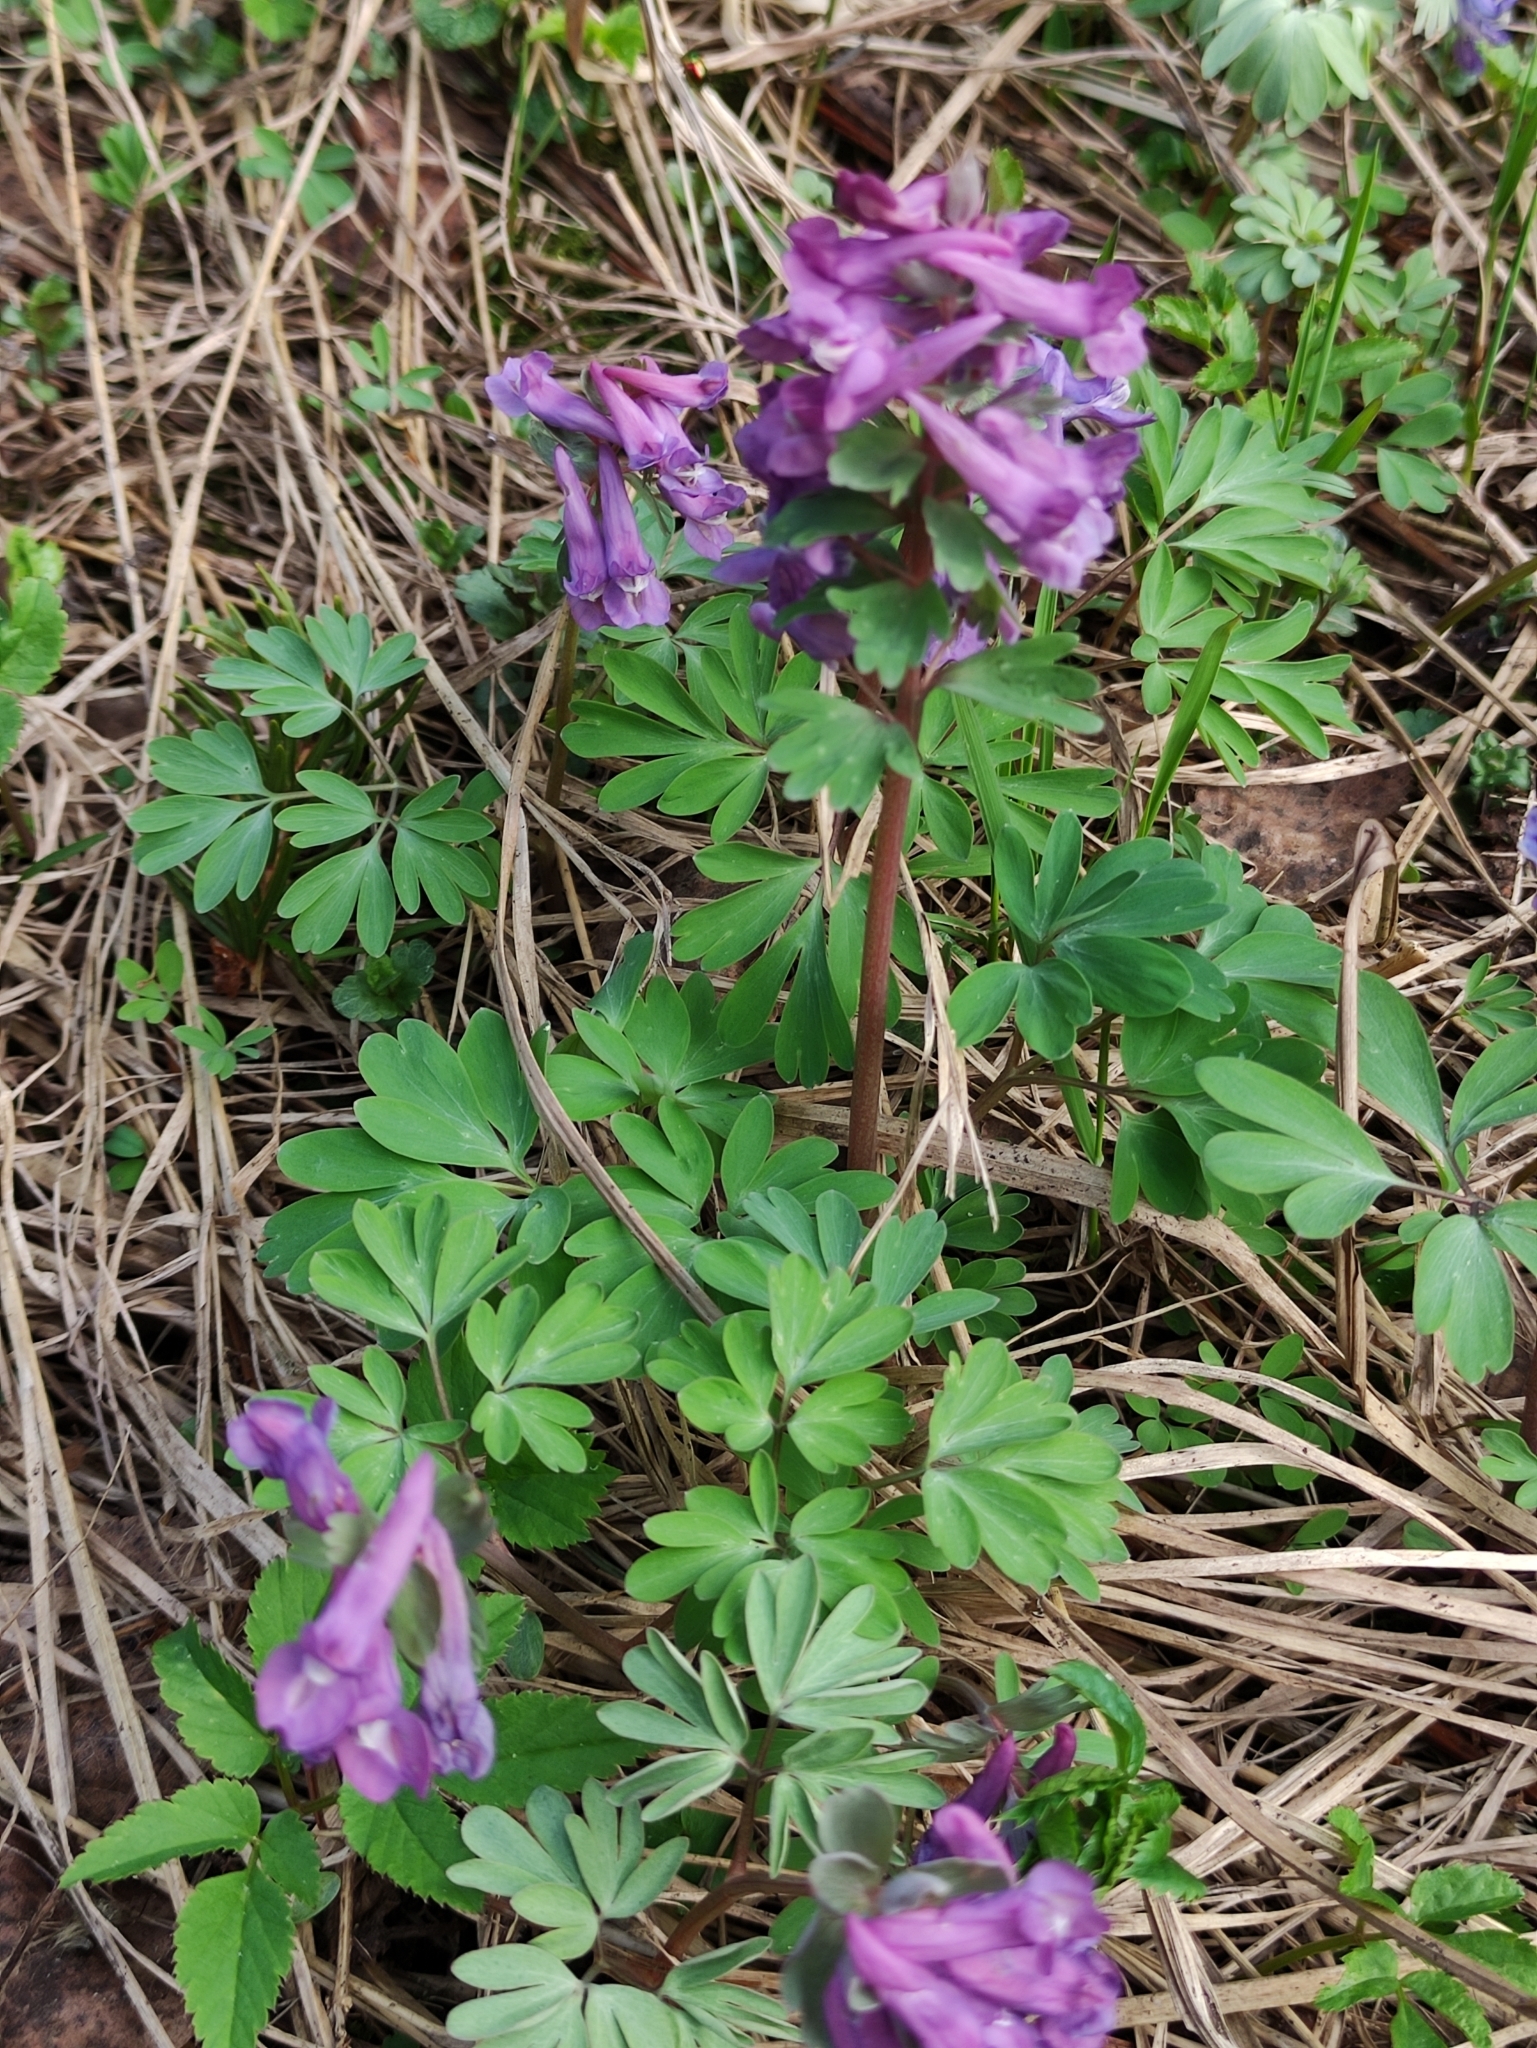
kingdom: Plantae
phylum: Tracheophyta
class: Magnoliopsida
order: Ranunculales
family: Papaveraceae
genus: Corydalis
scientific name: Corydalis solida
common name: Bird-in-a-bush
